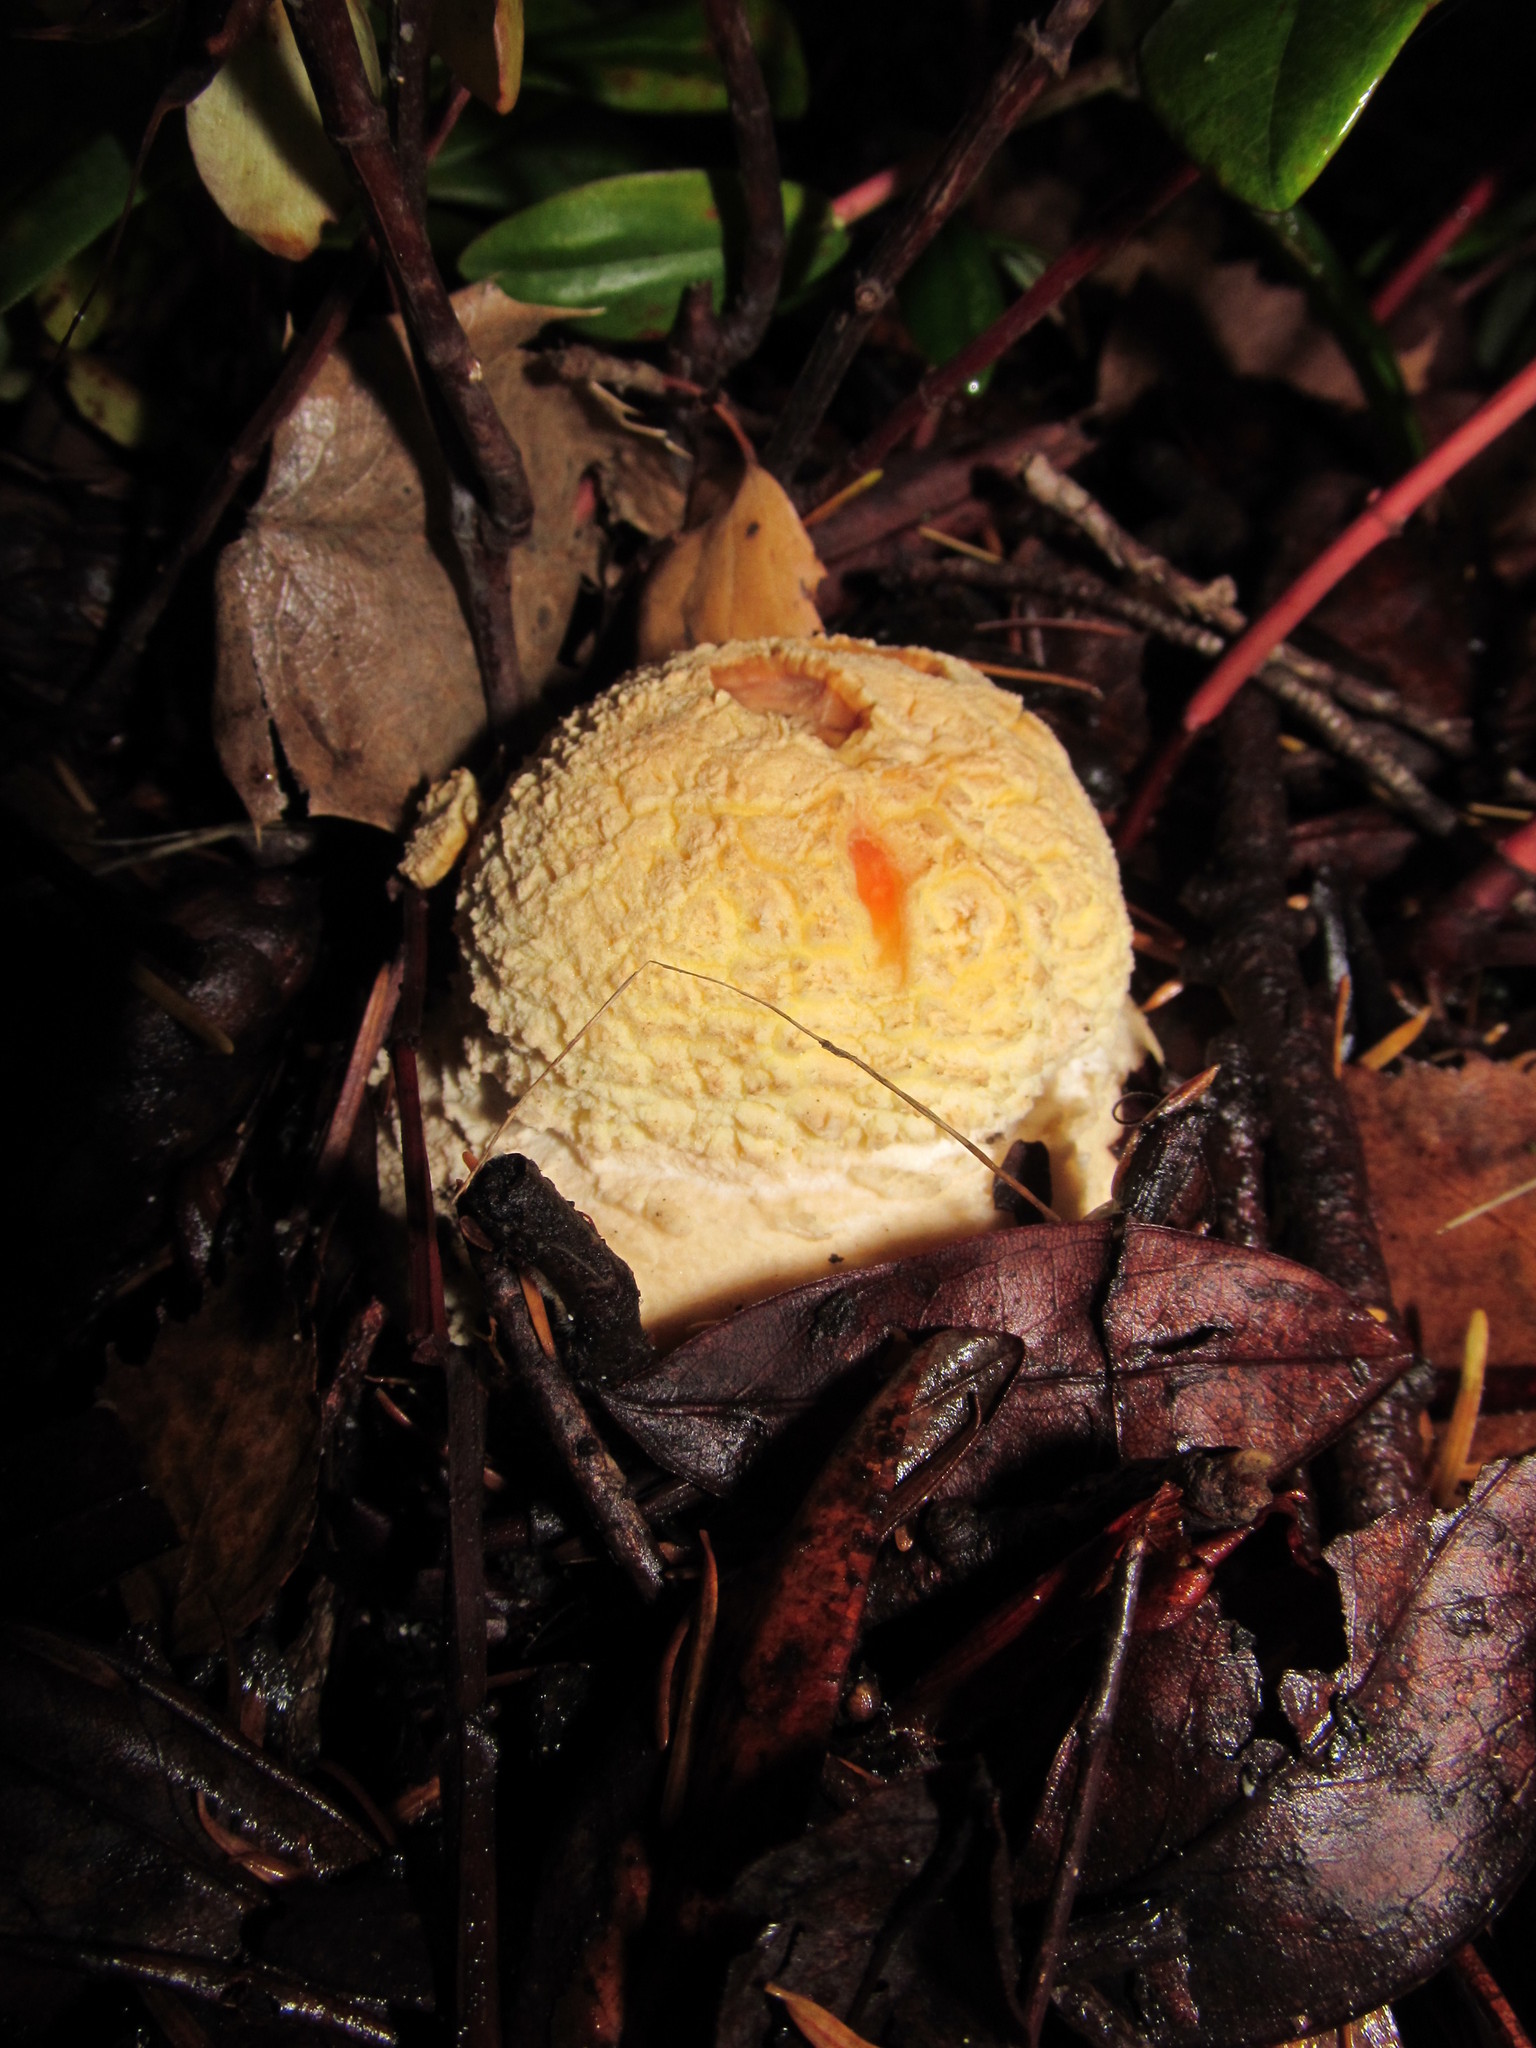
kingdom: Fungi
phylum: Basidiomycota
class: Agaricomycetes
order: Agaricales
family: Amanitaceae
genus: Amanita
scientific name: Amanita muscaria
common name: Fly agaric
